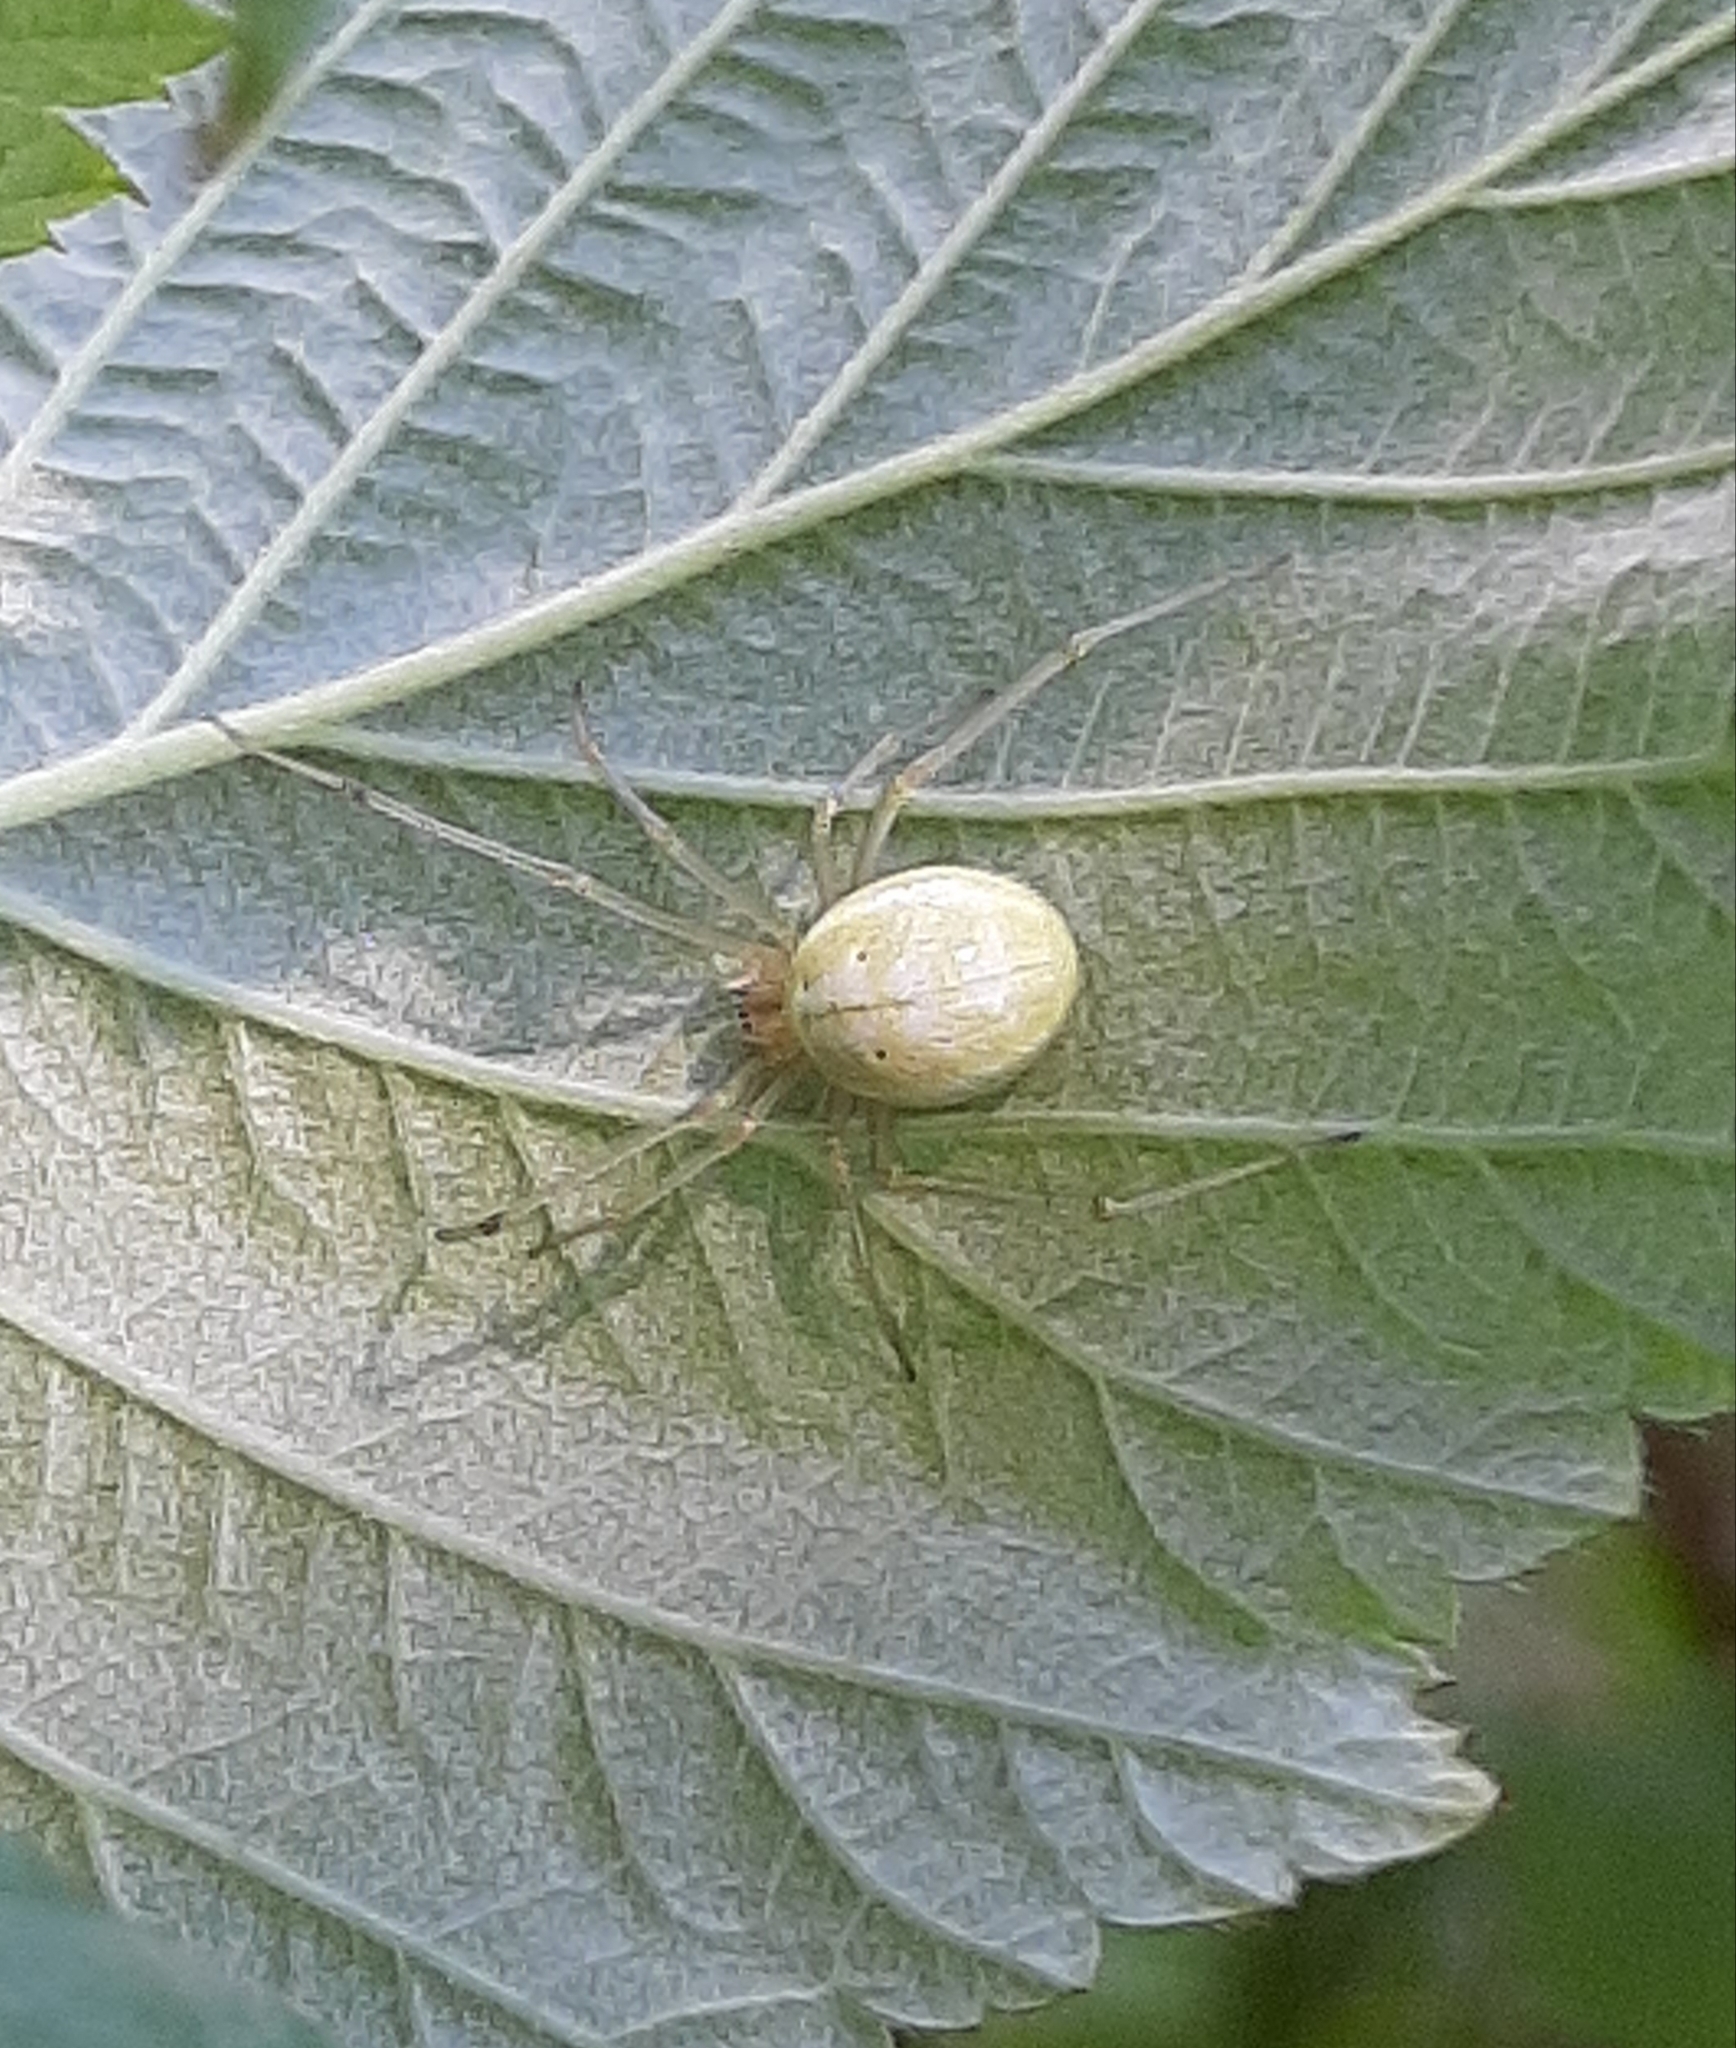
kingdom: Animalia
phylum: Arthropoda
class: Arachnida
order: Araneae
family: Theridiidae
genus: Enoplognatha
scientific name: Enoplognatha ovata
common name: Common candy-striped spider
